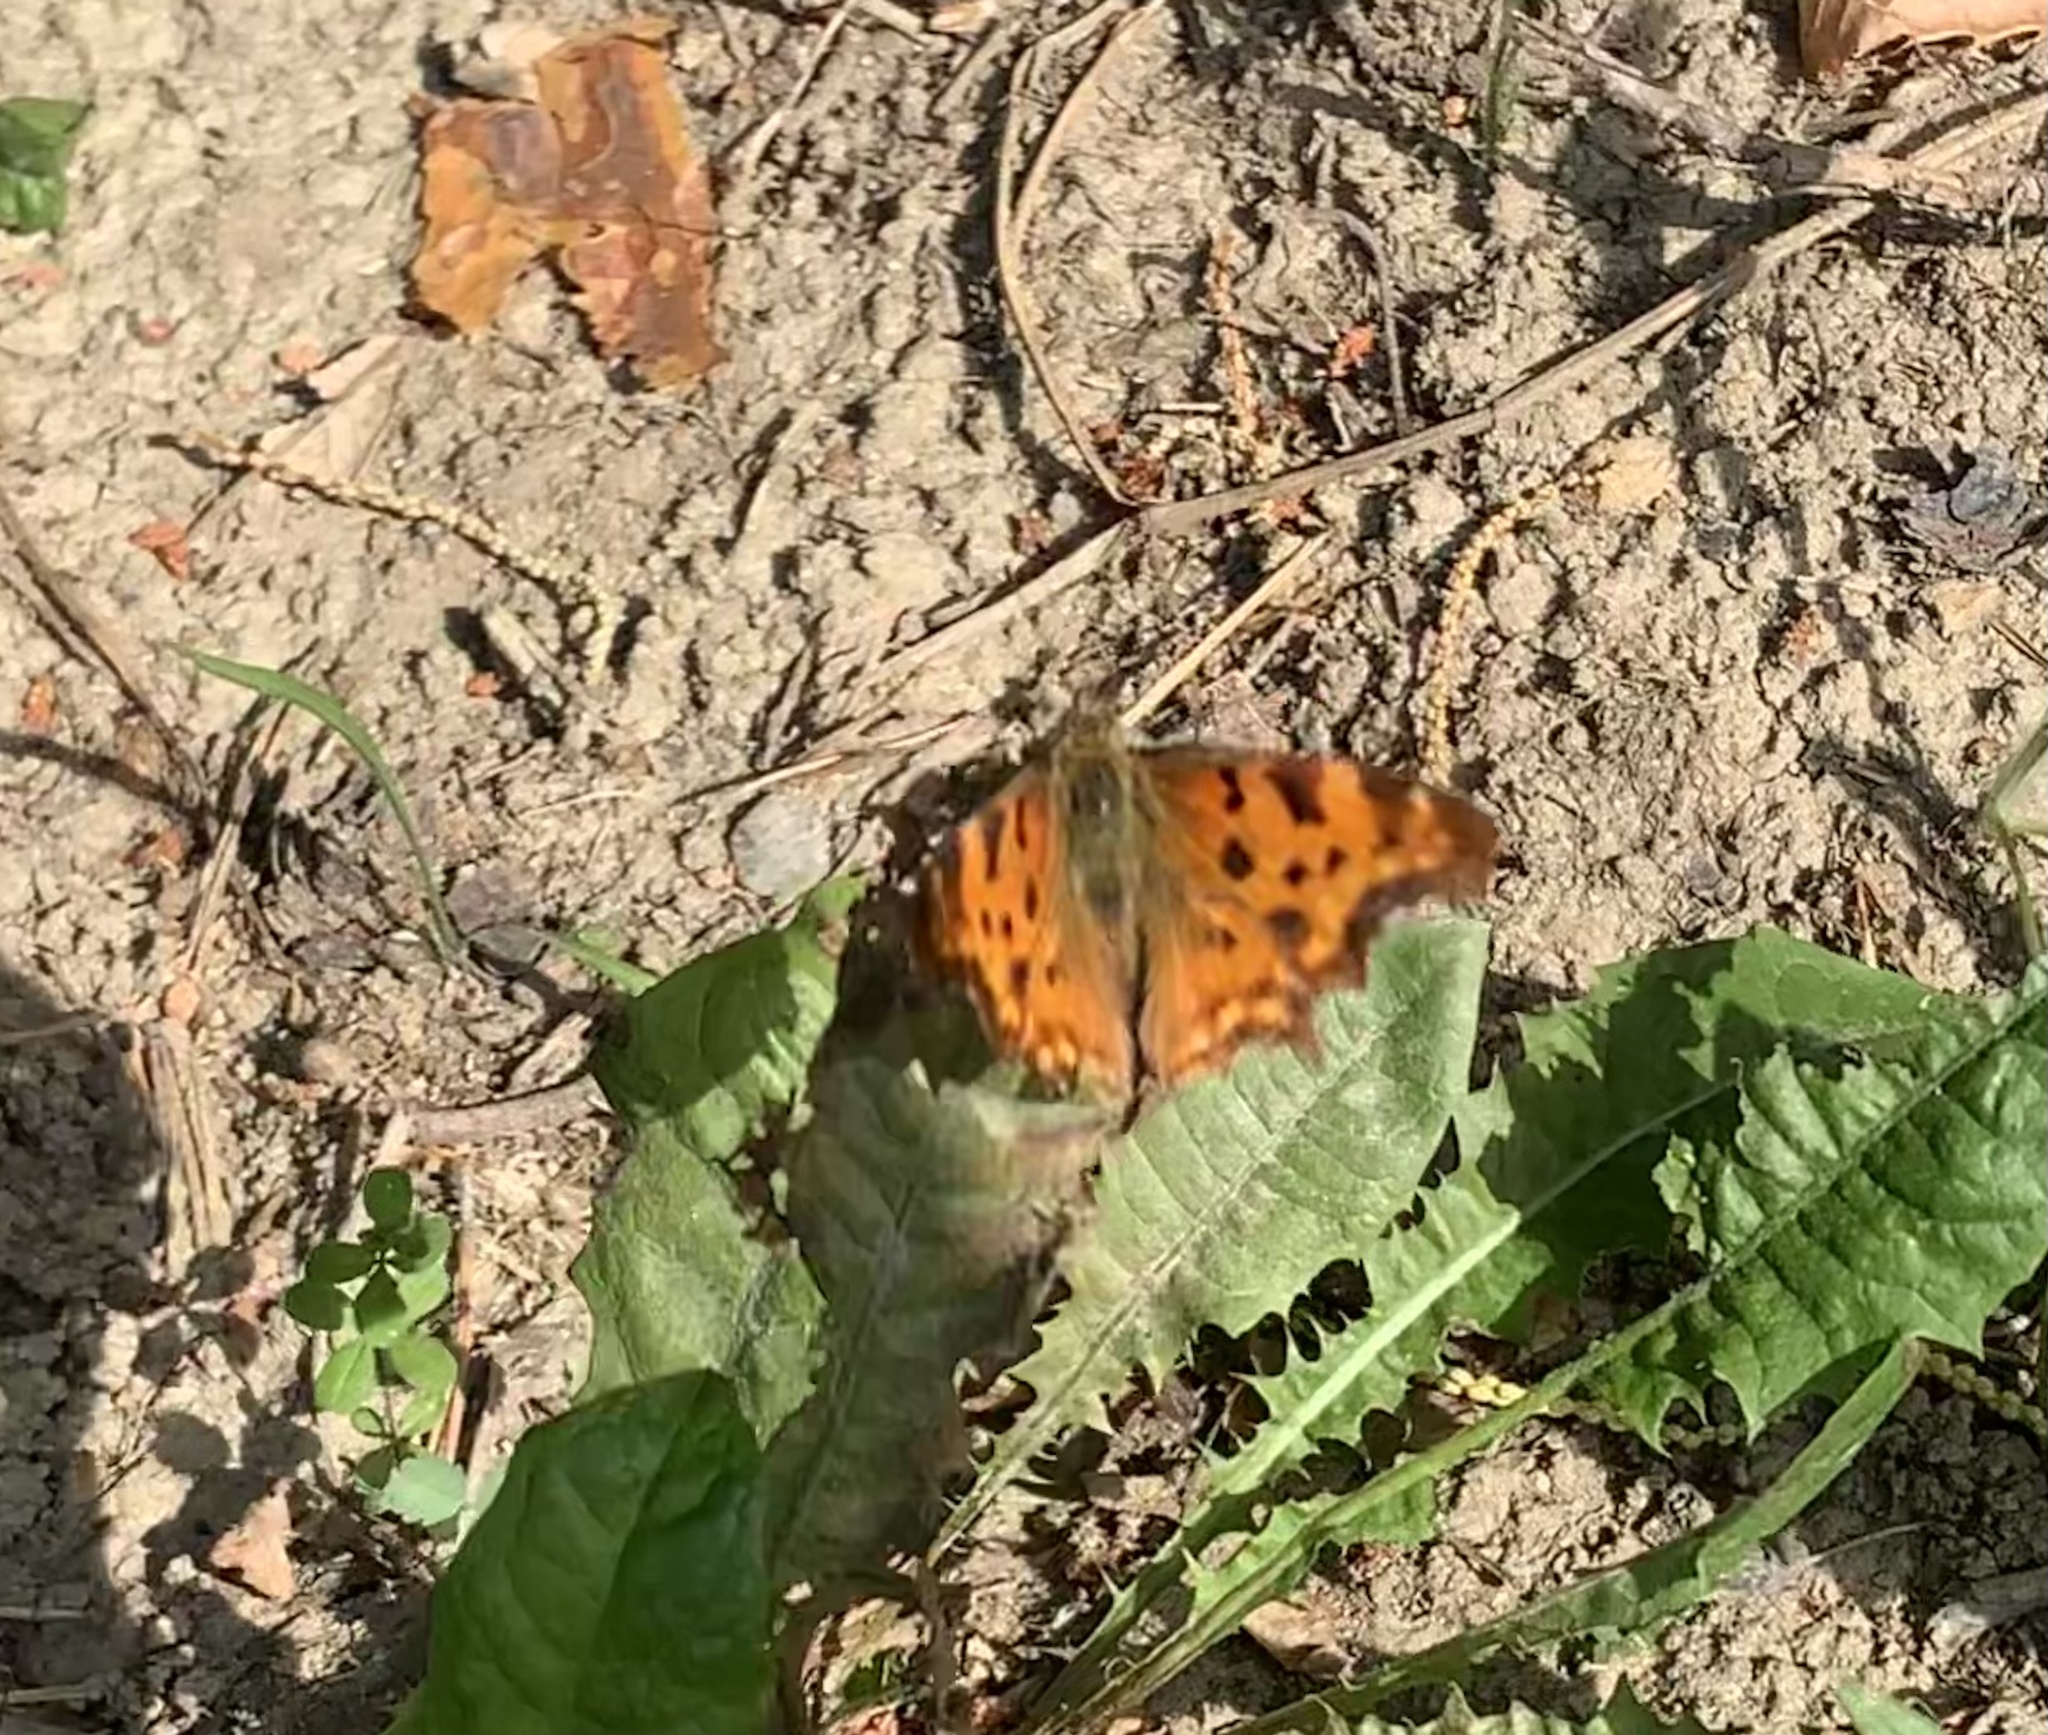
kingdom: Animalia
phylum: Arthropoda
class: Insecta
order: Lepidoptera
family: Nymphalidae
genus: Polygonia
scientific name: Polygonia c-album
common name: Comma
